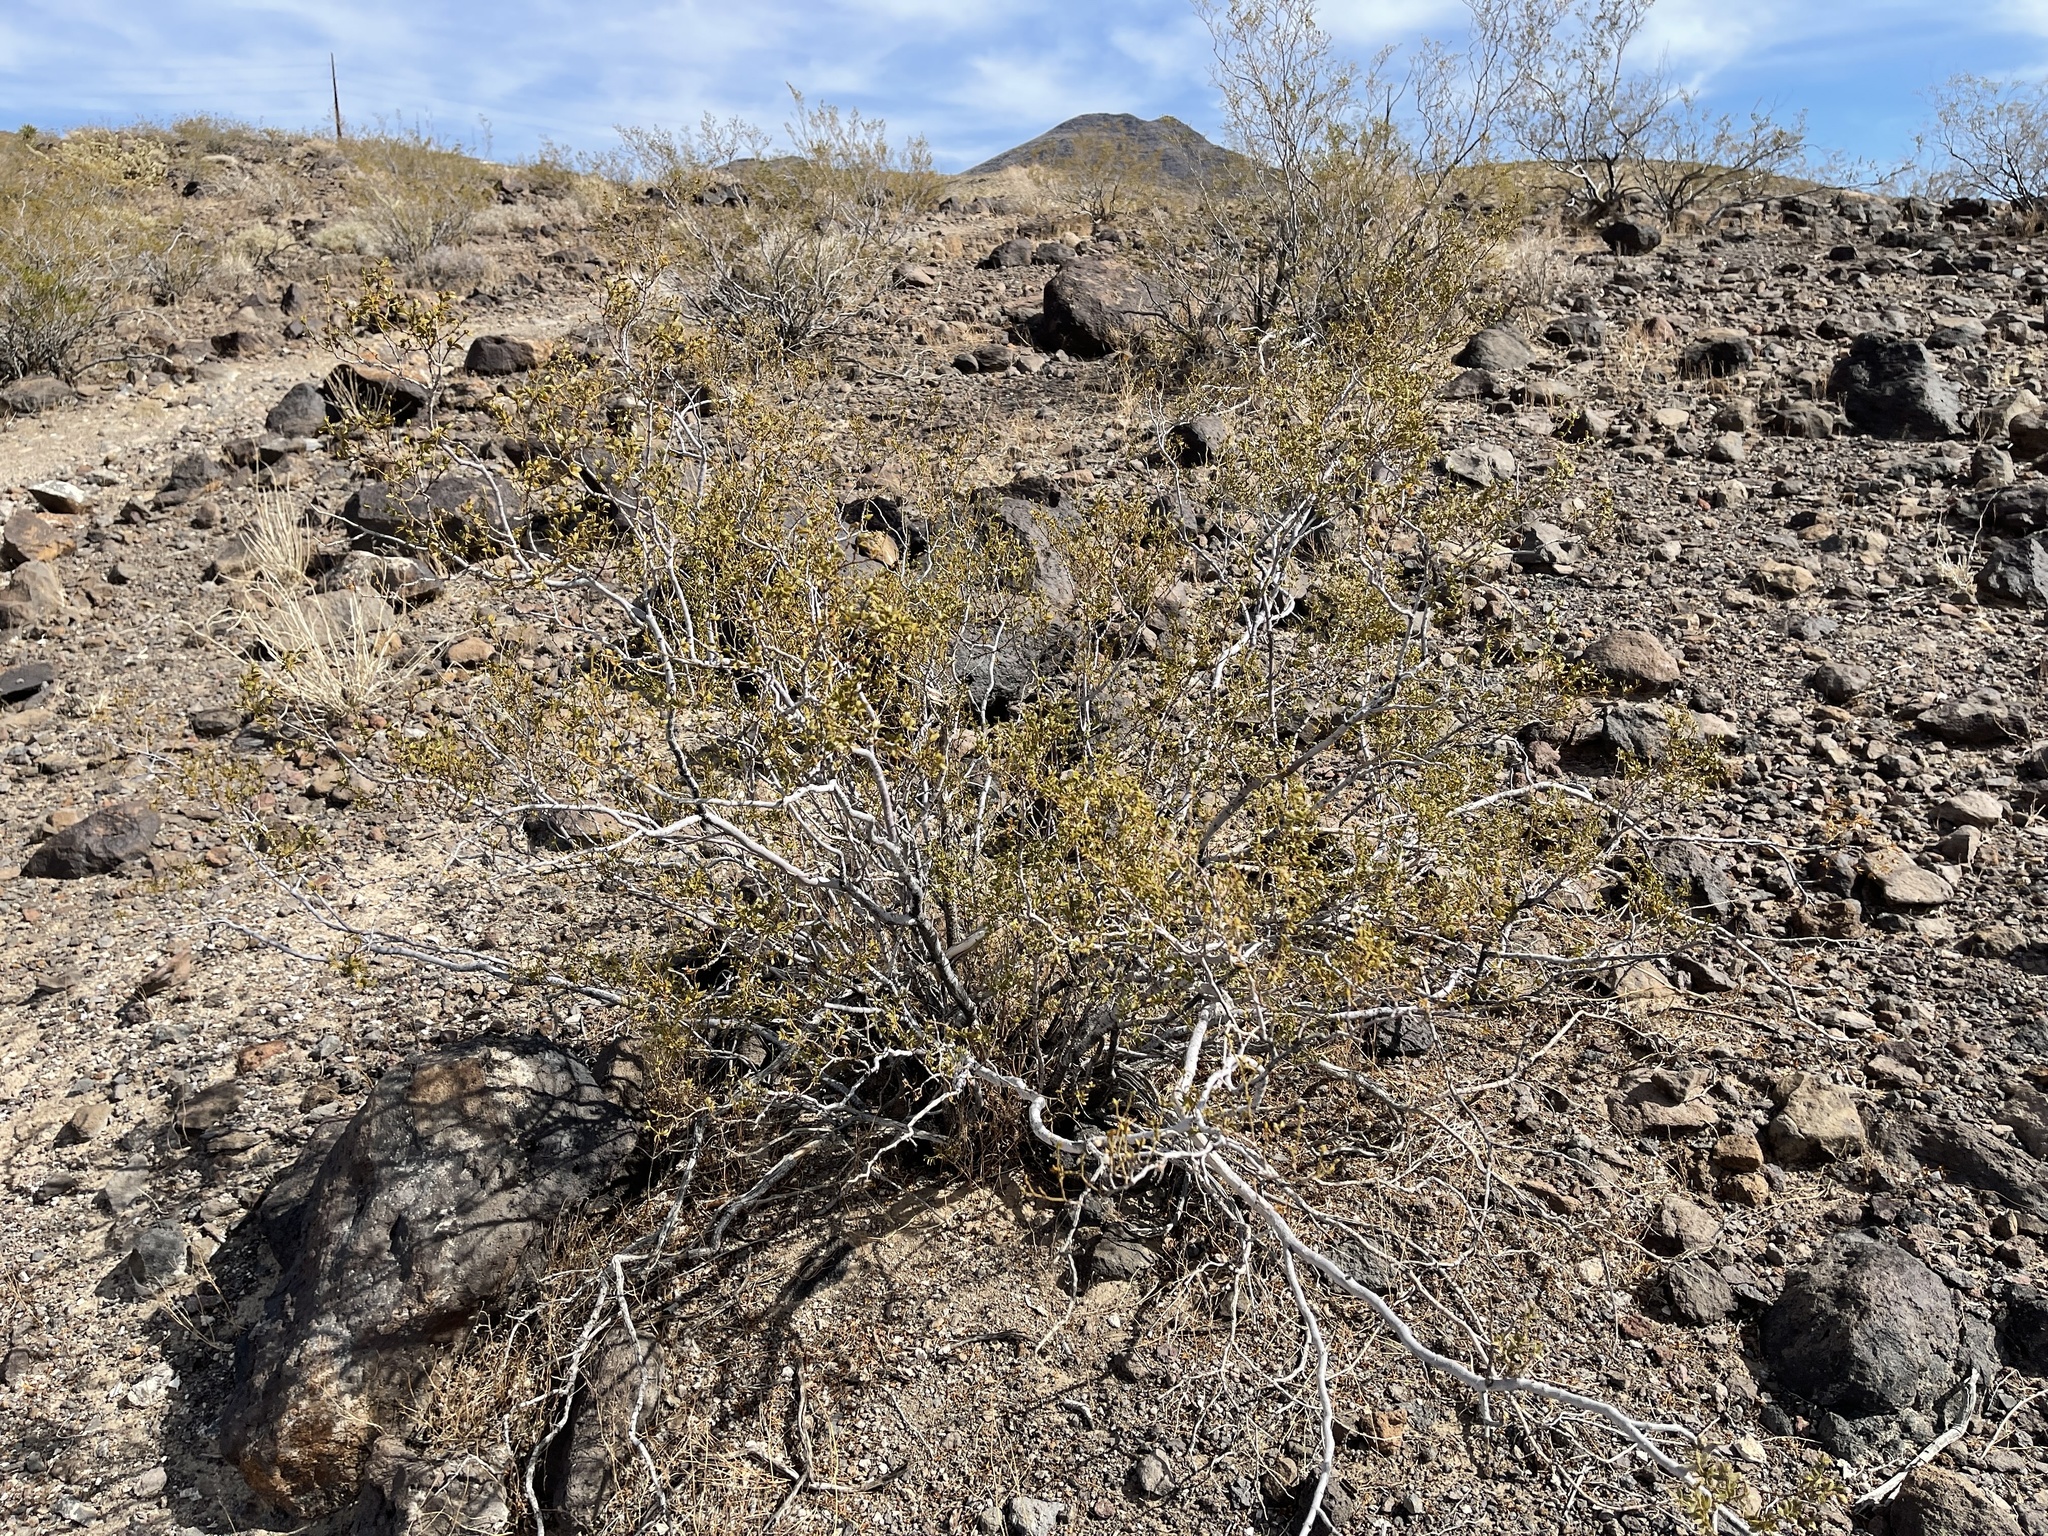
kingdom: Plantae
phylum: Tracheophyta
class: Magnoliopsida
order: Zygophyllales
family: Zygophyllaceae
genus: Larrea
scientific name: Larrea tridentata
